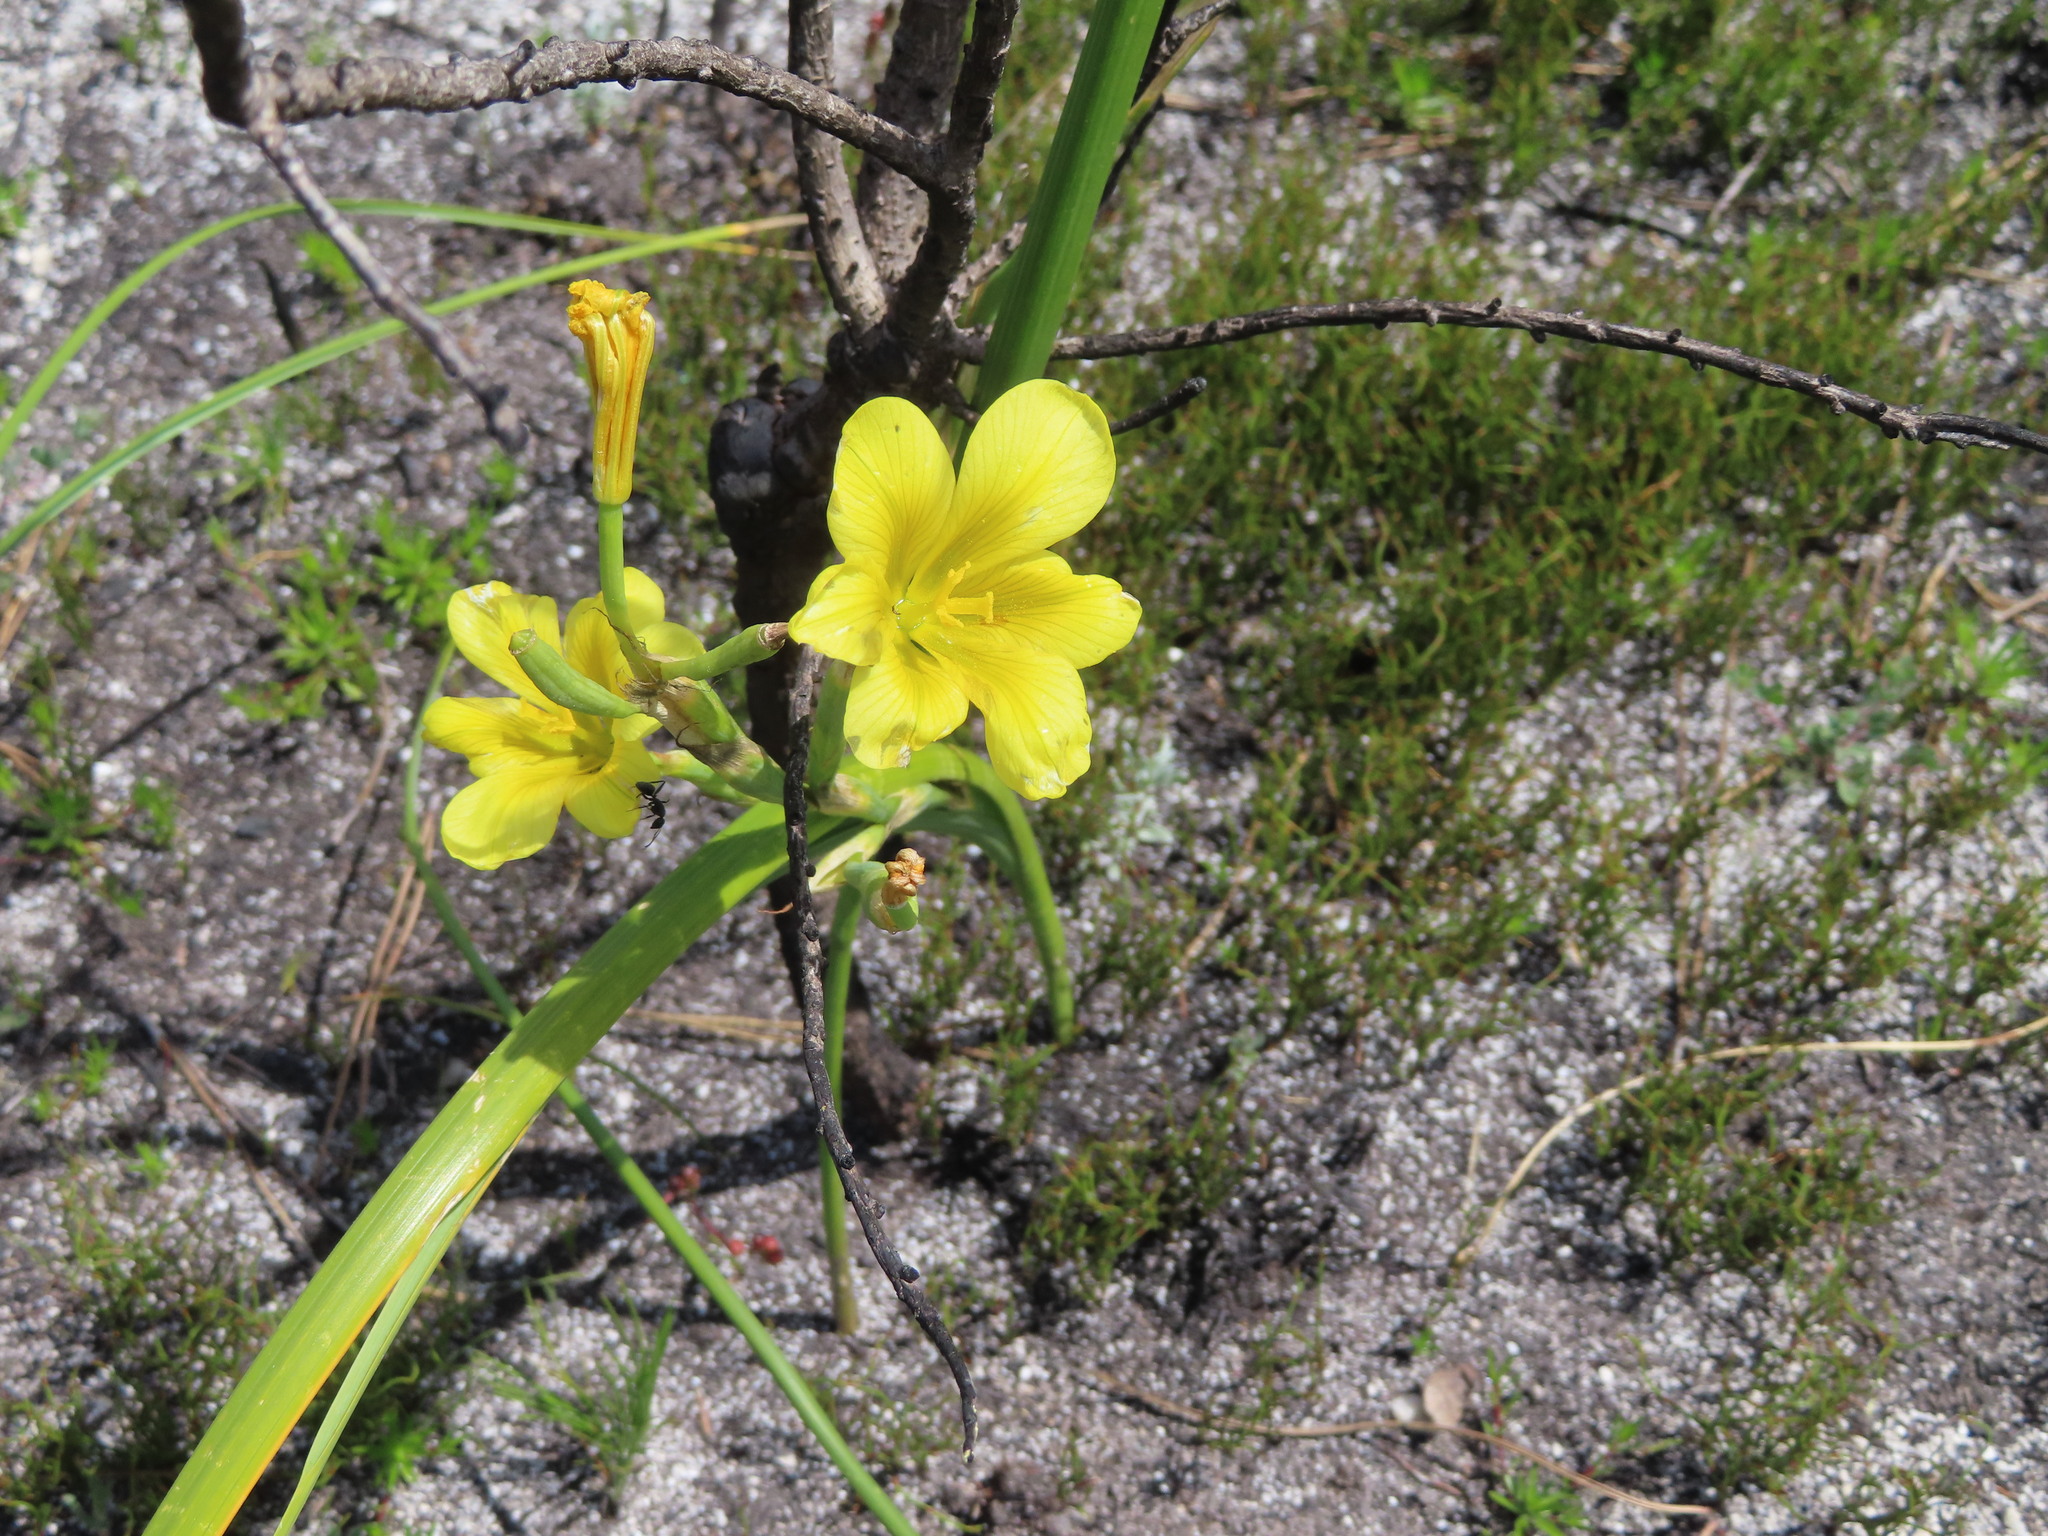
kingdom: Plantae
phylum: Tracheophyta
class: Liliopsida
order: Asparagales
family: Iridaceae
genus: Moraea
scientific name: Moraea ochroleuca
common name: Red tulp
